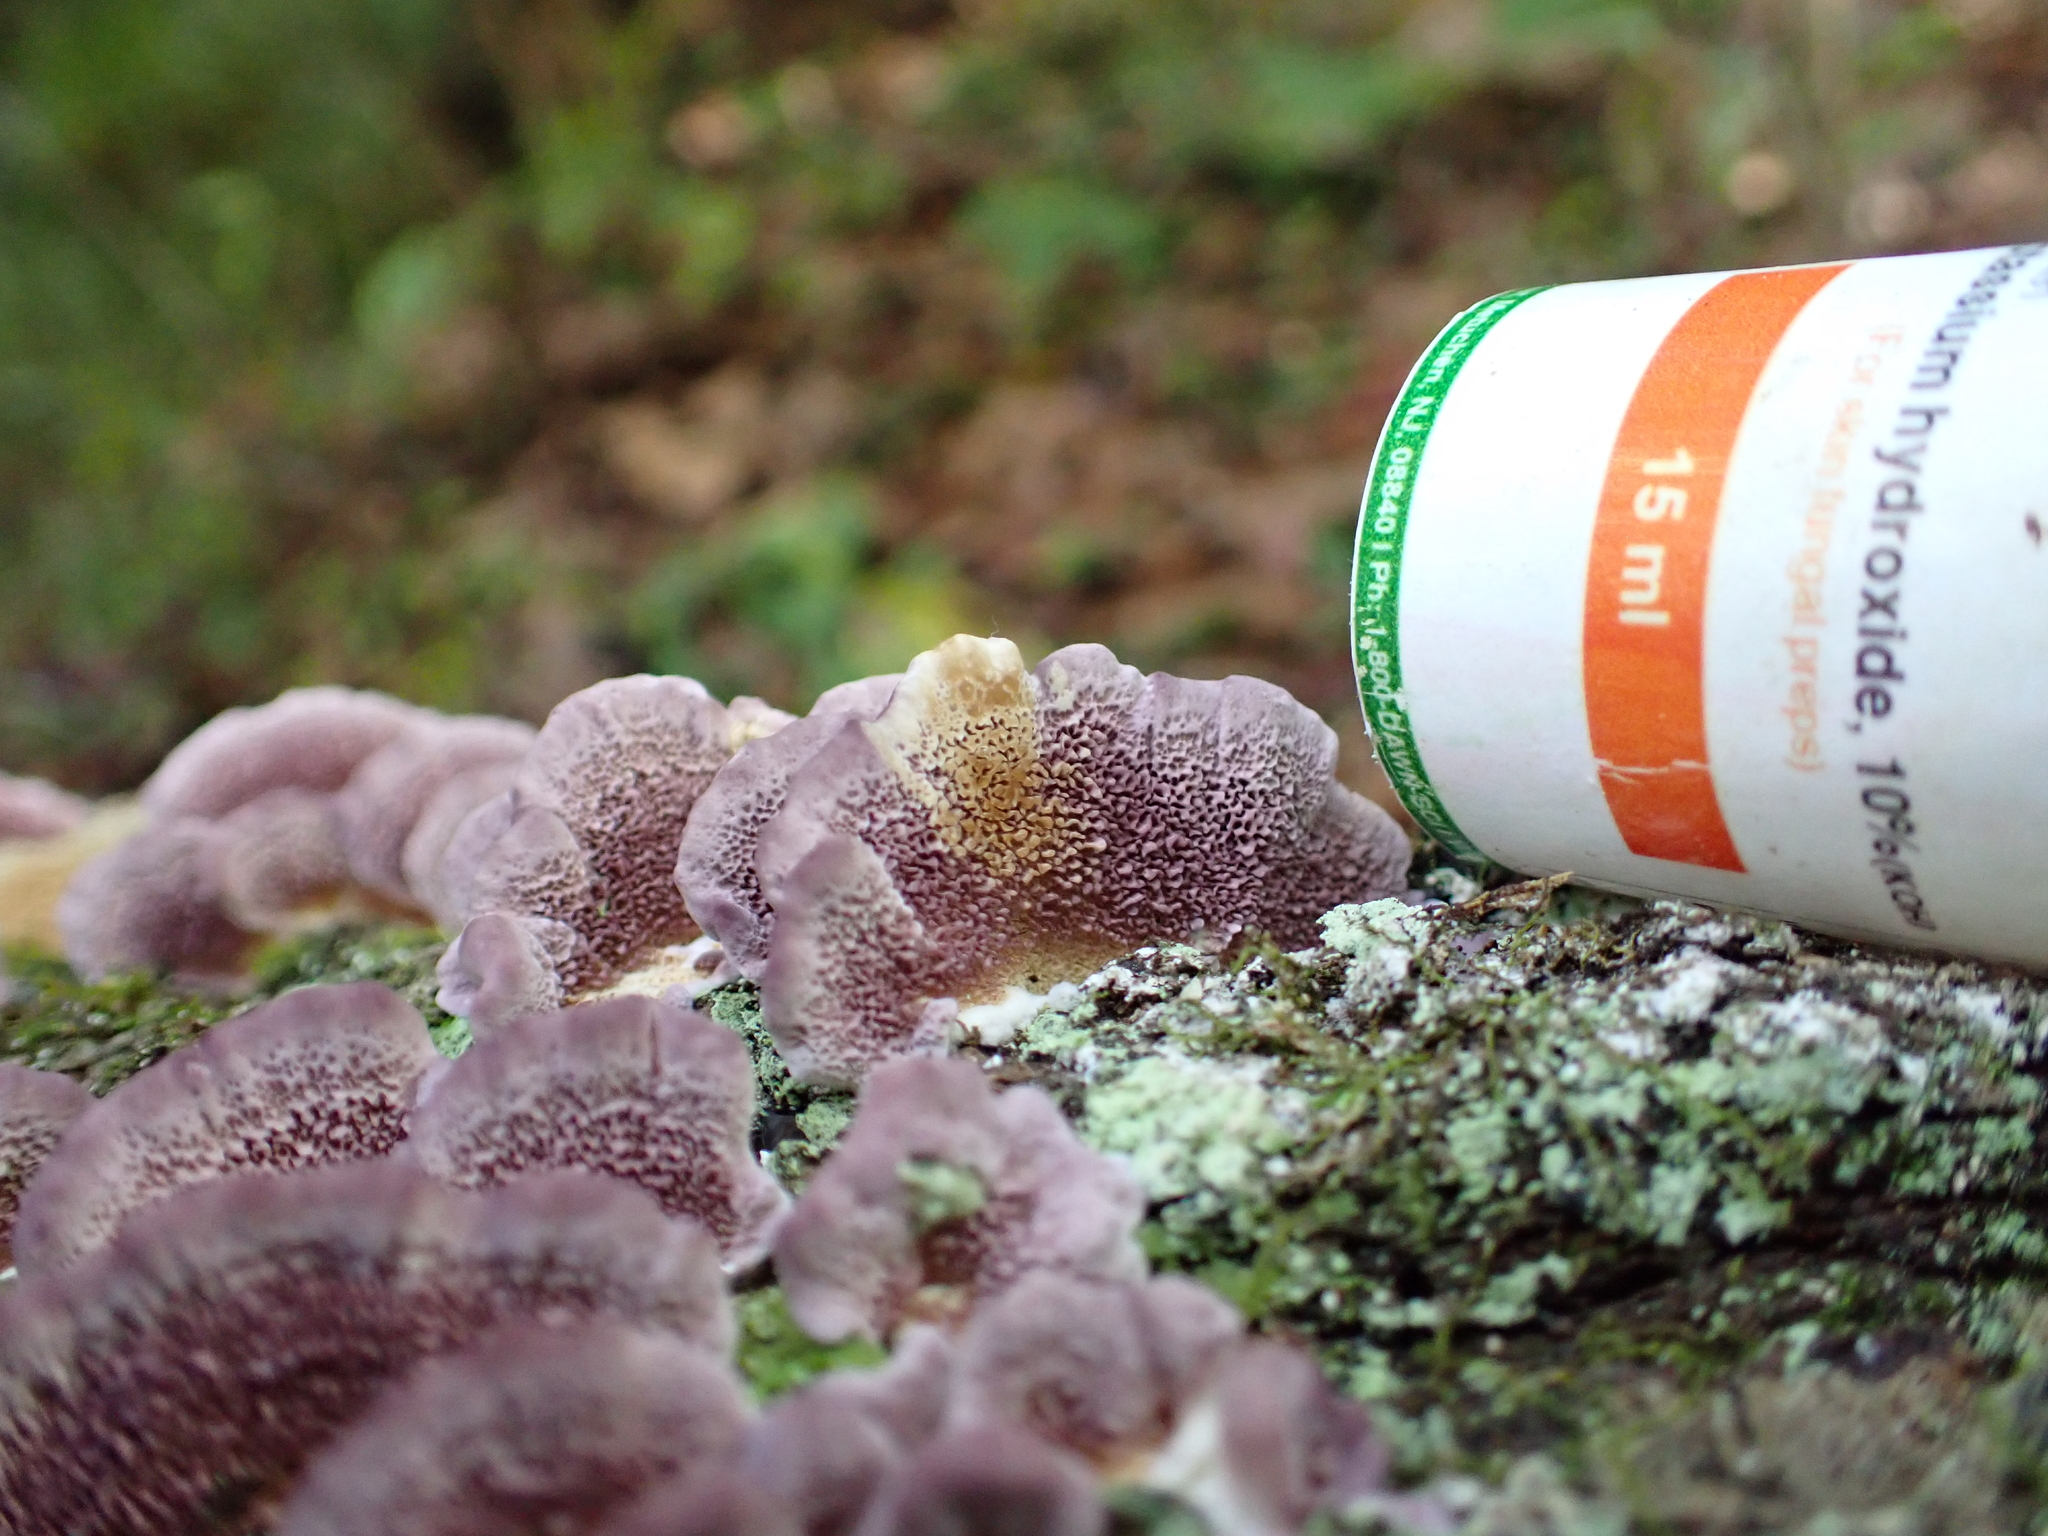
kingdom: Fungi
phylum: Basidiomycota
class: Agaricomycetes
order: Hymenochaetales
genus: Trichaptum
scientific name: Trichaptum biforme
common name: Violet-toothed polypore
